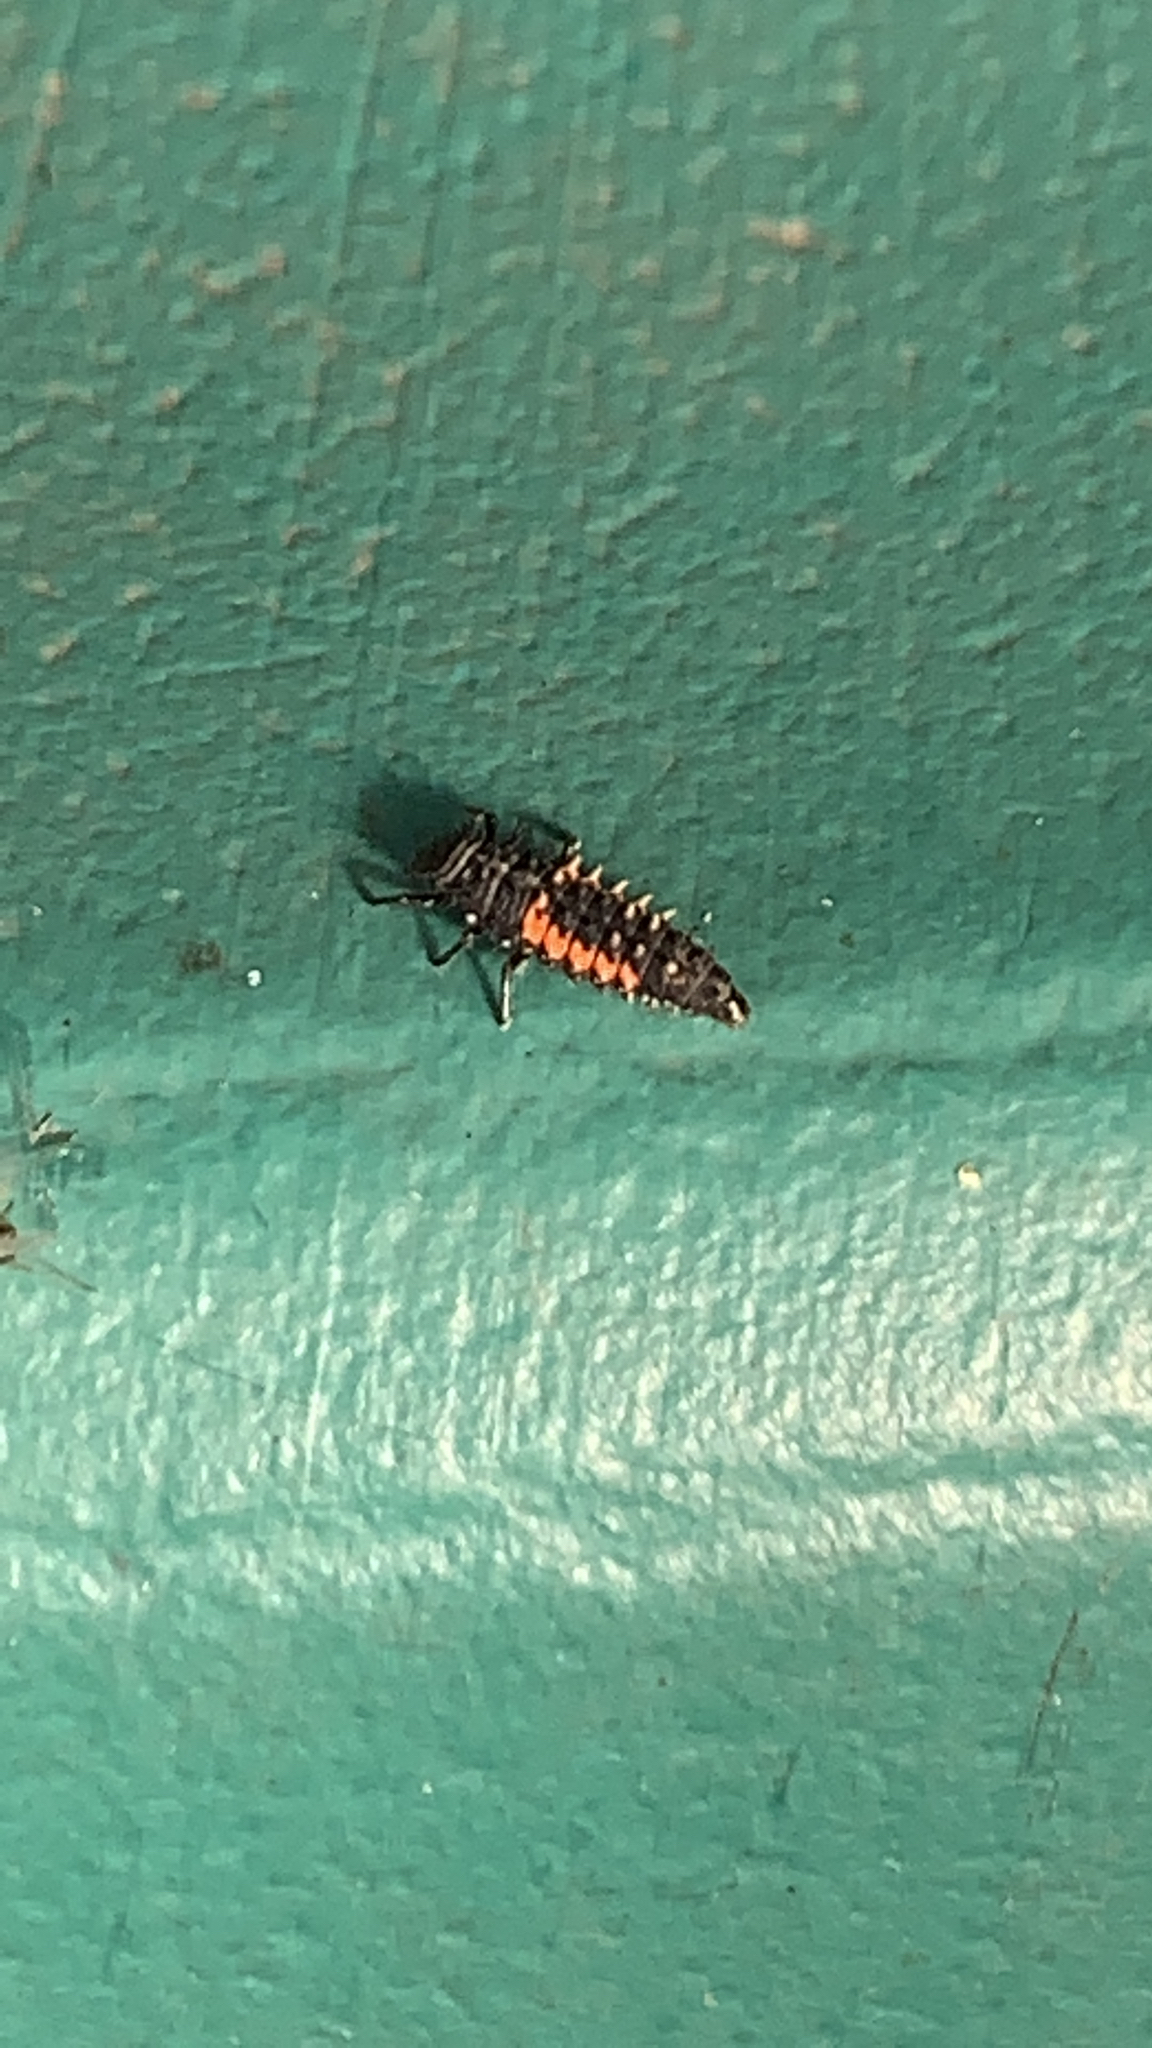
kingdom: Animalia
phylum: Arthropoda
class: Insecta
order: Coleoptera
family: Coccinellidae
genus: Harmonia
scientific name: Harmonia axyridis
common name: Harlequin ladybird
